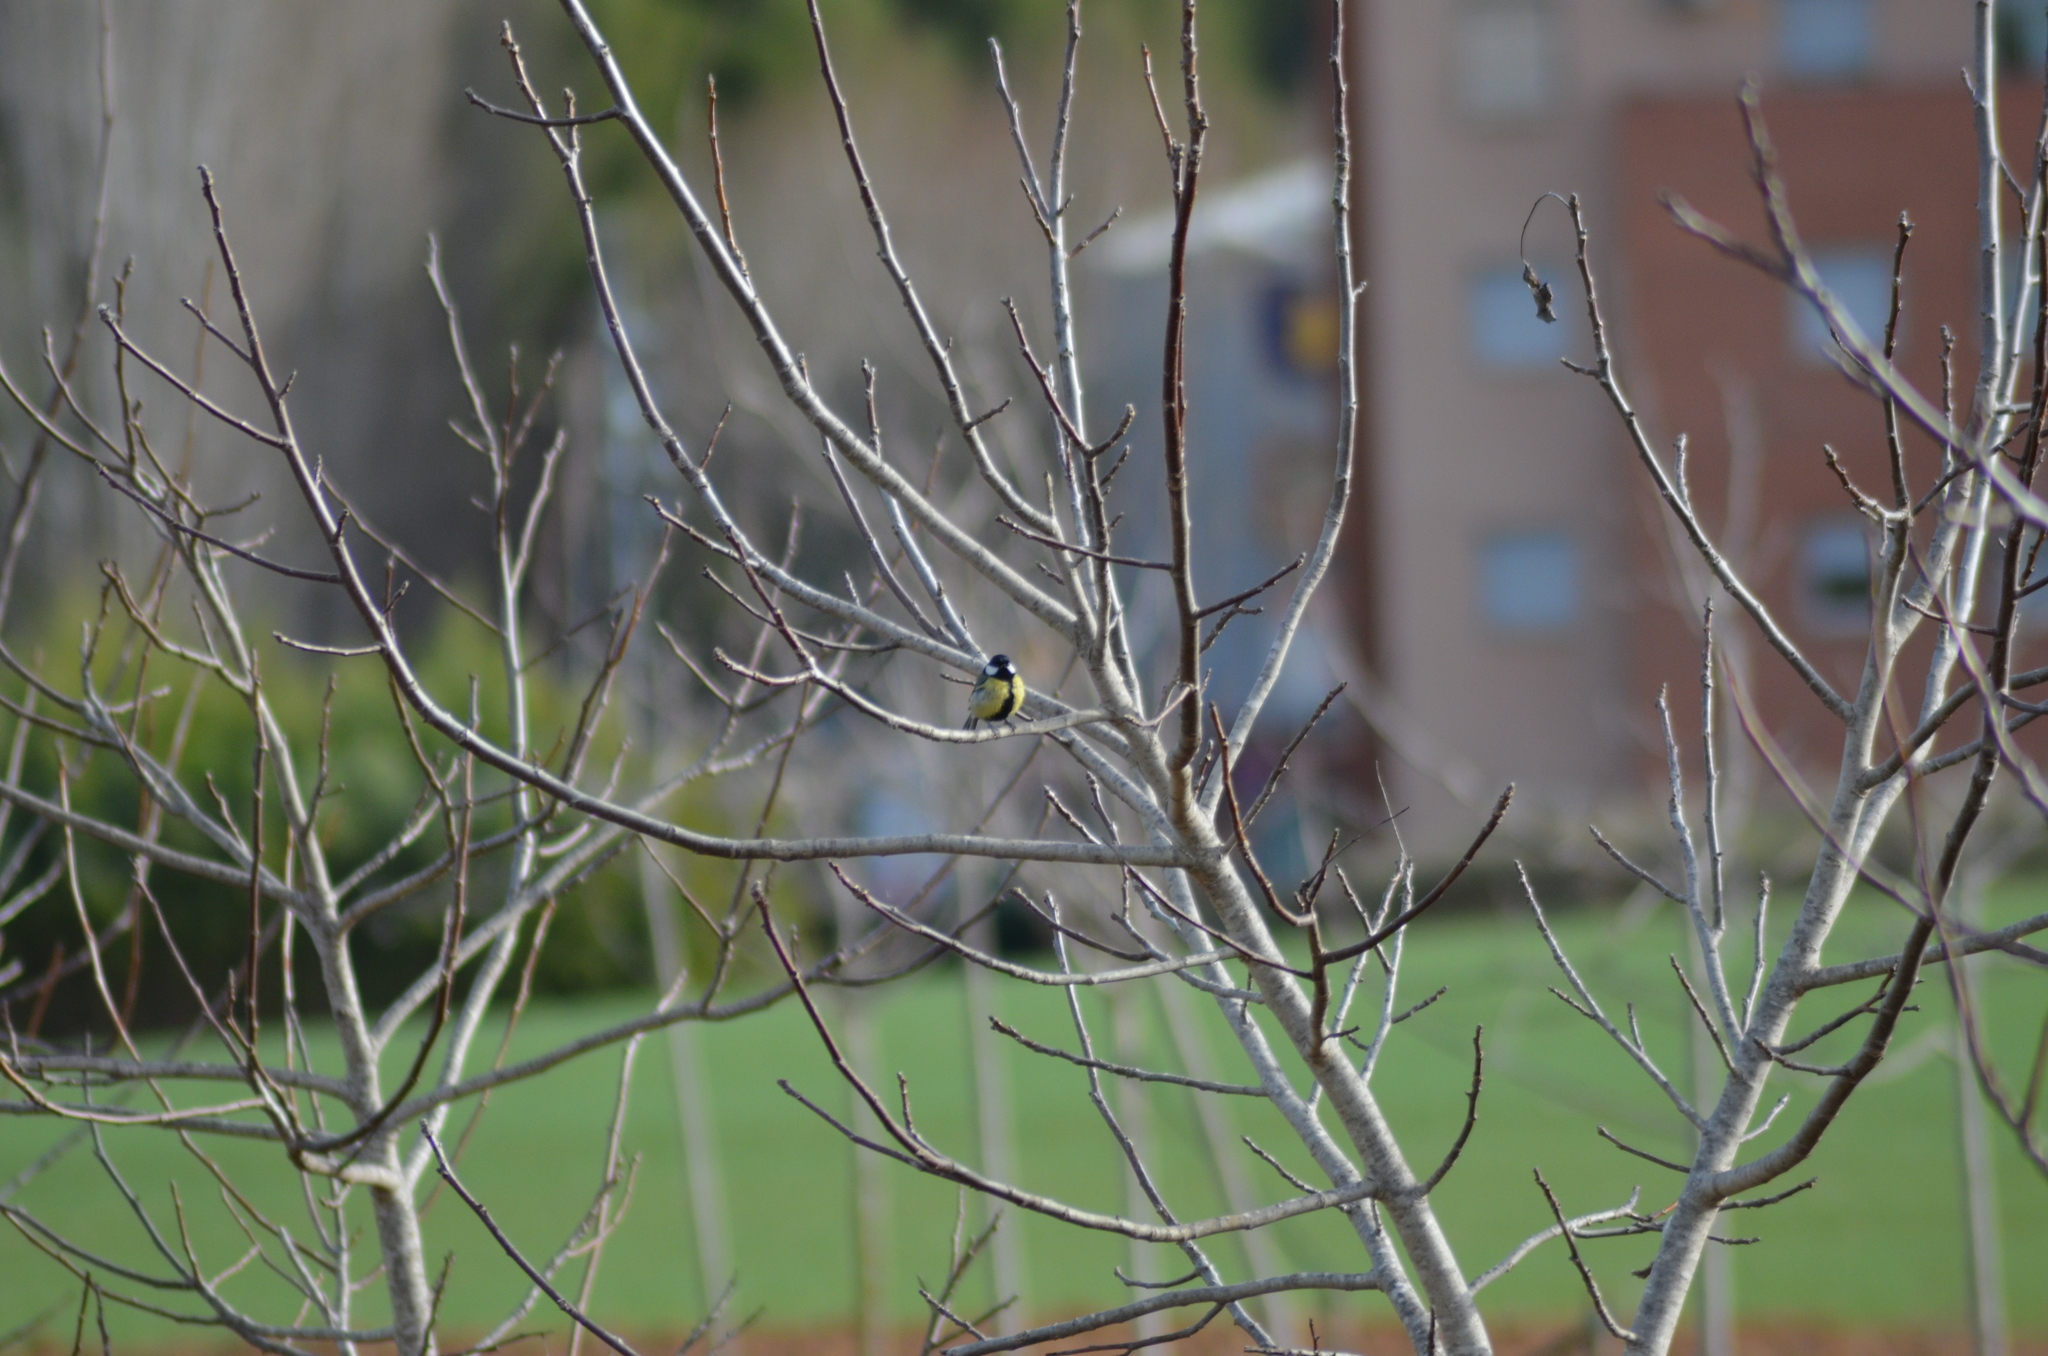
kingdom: Animalia
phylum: Chordata
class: Aves
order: Passeriformes
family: Paridae
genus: Parus
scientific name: Parus major
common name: Great tit
